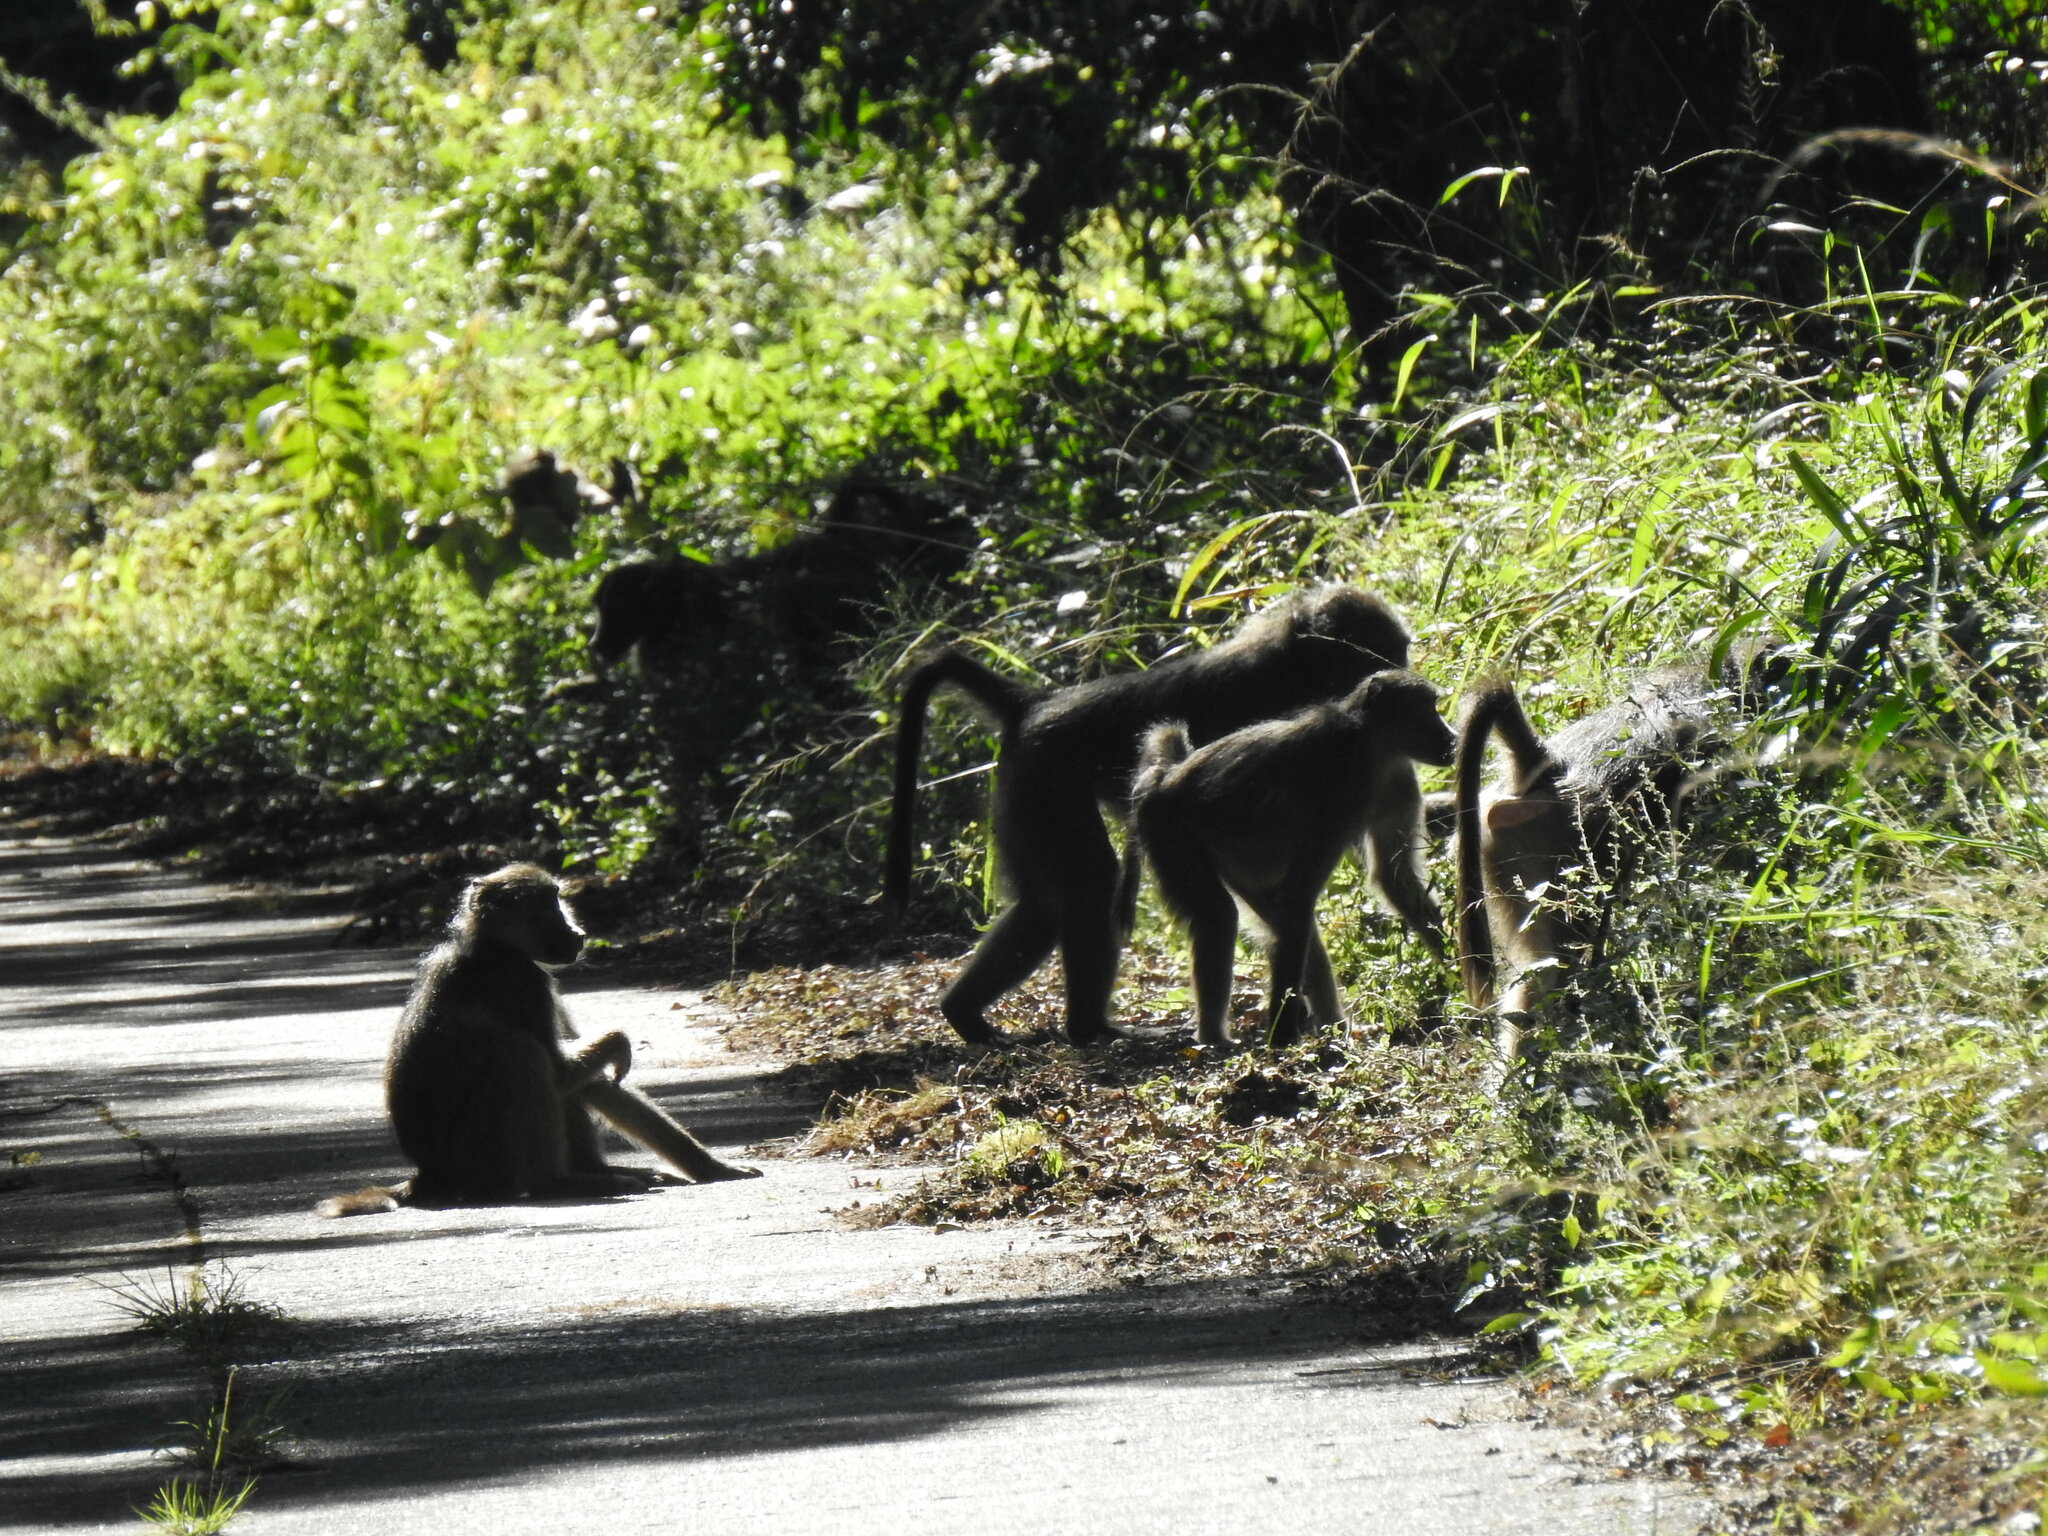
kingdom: Animalia
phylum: Chordata
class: Mammalia
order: Primates
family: Cercopithecidae
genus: Papio
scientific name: Papio ursinus
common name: Chacma baboon
